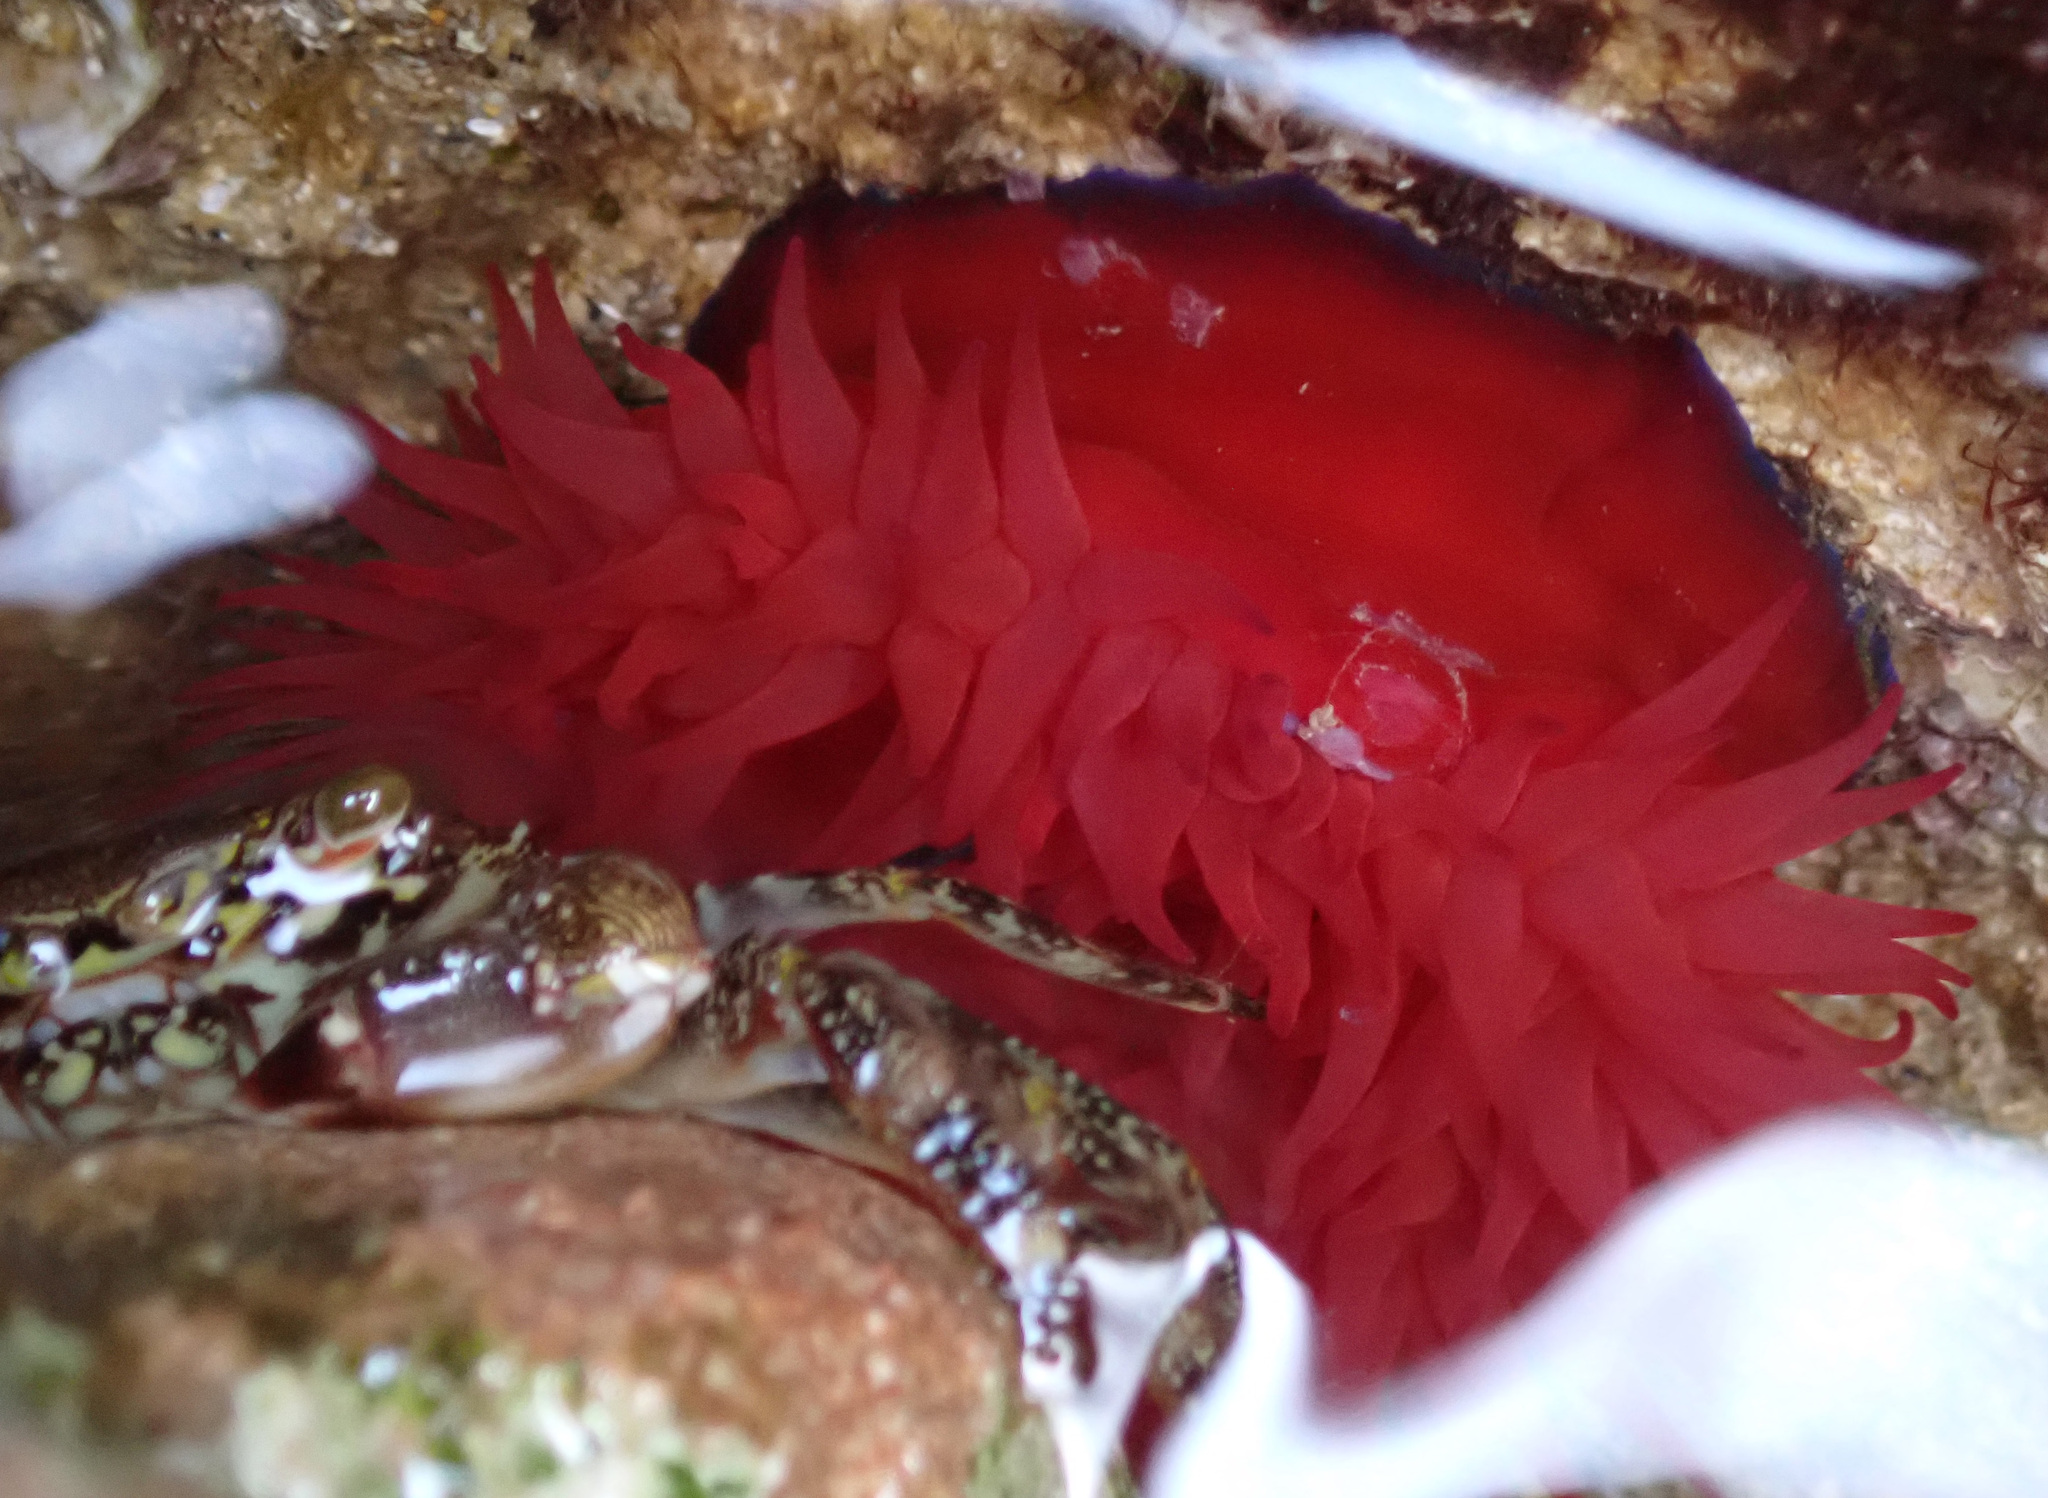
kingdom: Animalia
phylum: Cnidaria
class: Anthozoa
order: Actiniaria
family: Actiniidae
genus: Actinia
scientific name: Actinia mediterranea
